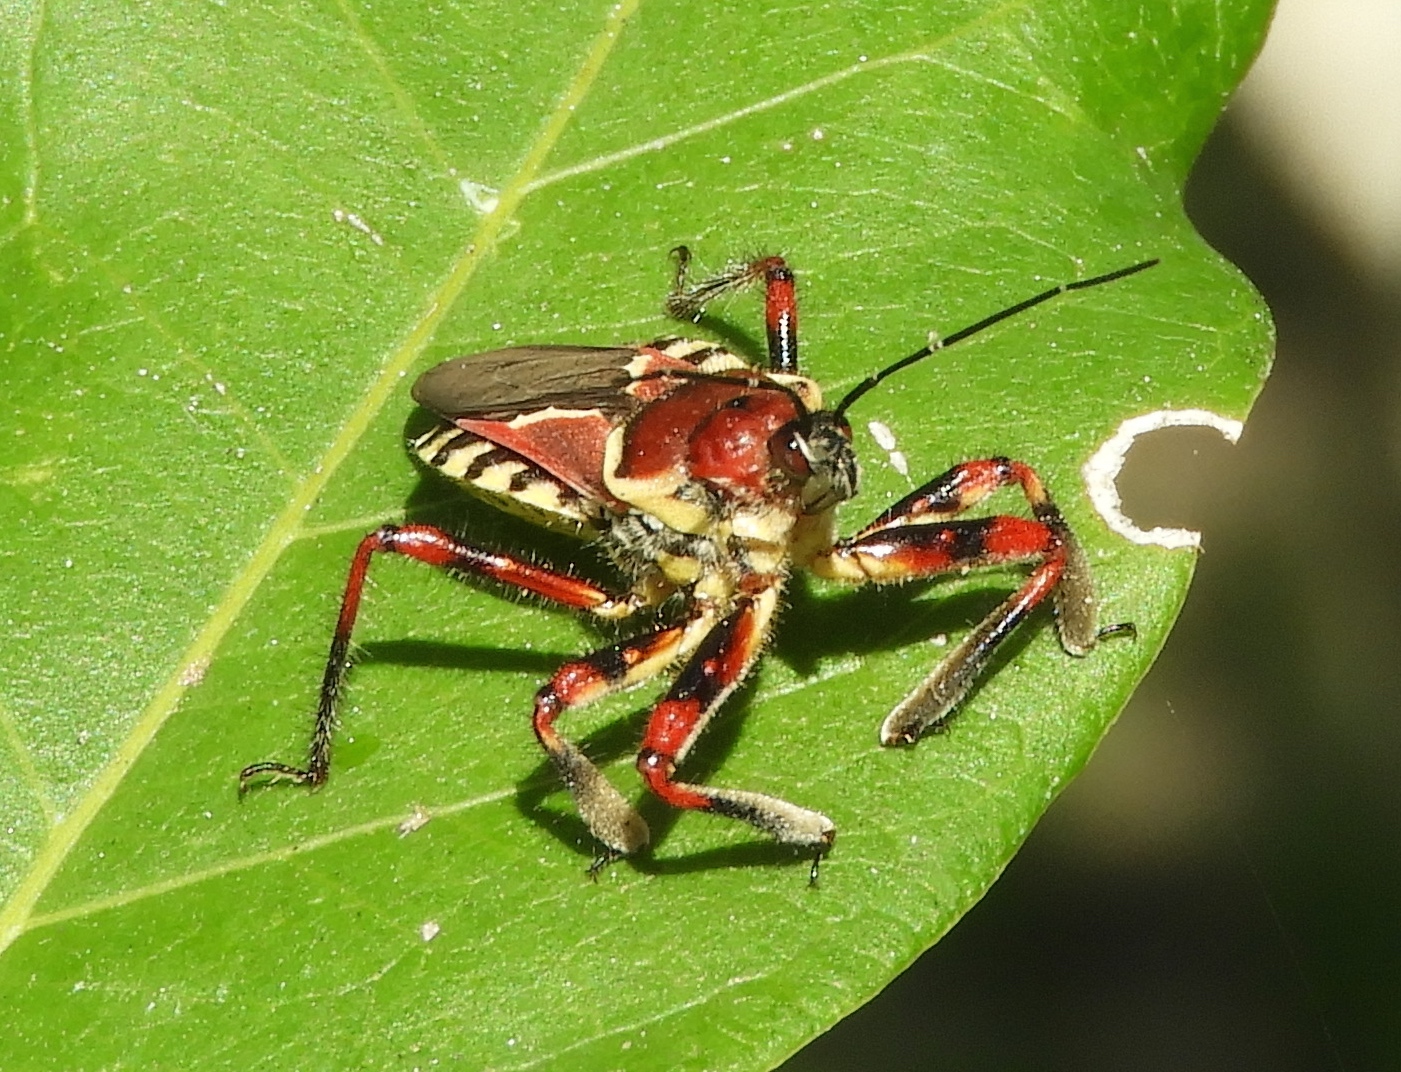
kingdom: Animalia
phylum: Arthropoda
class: Insecta
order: Hemiptera
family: Reduviidae
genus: Apiomerus
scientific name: Apiomerus flaviventris
